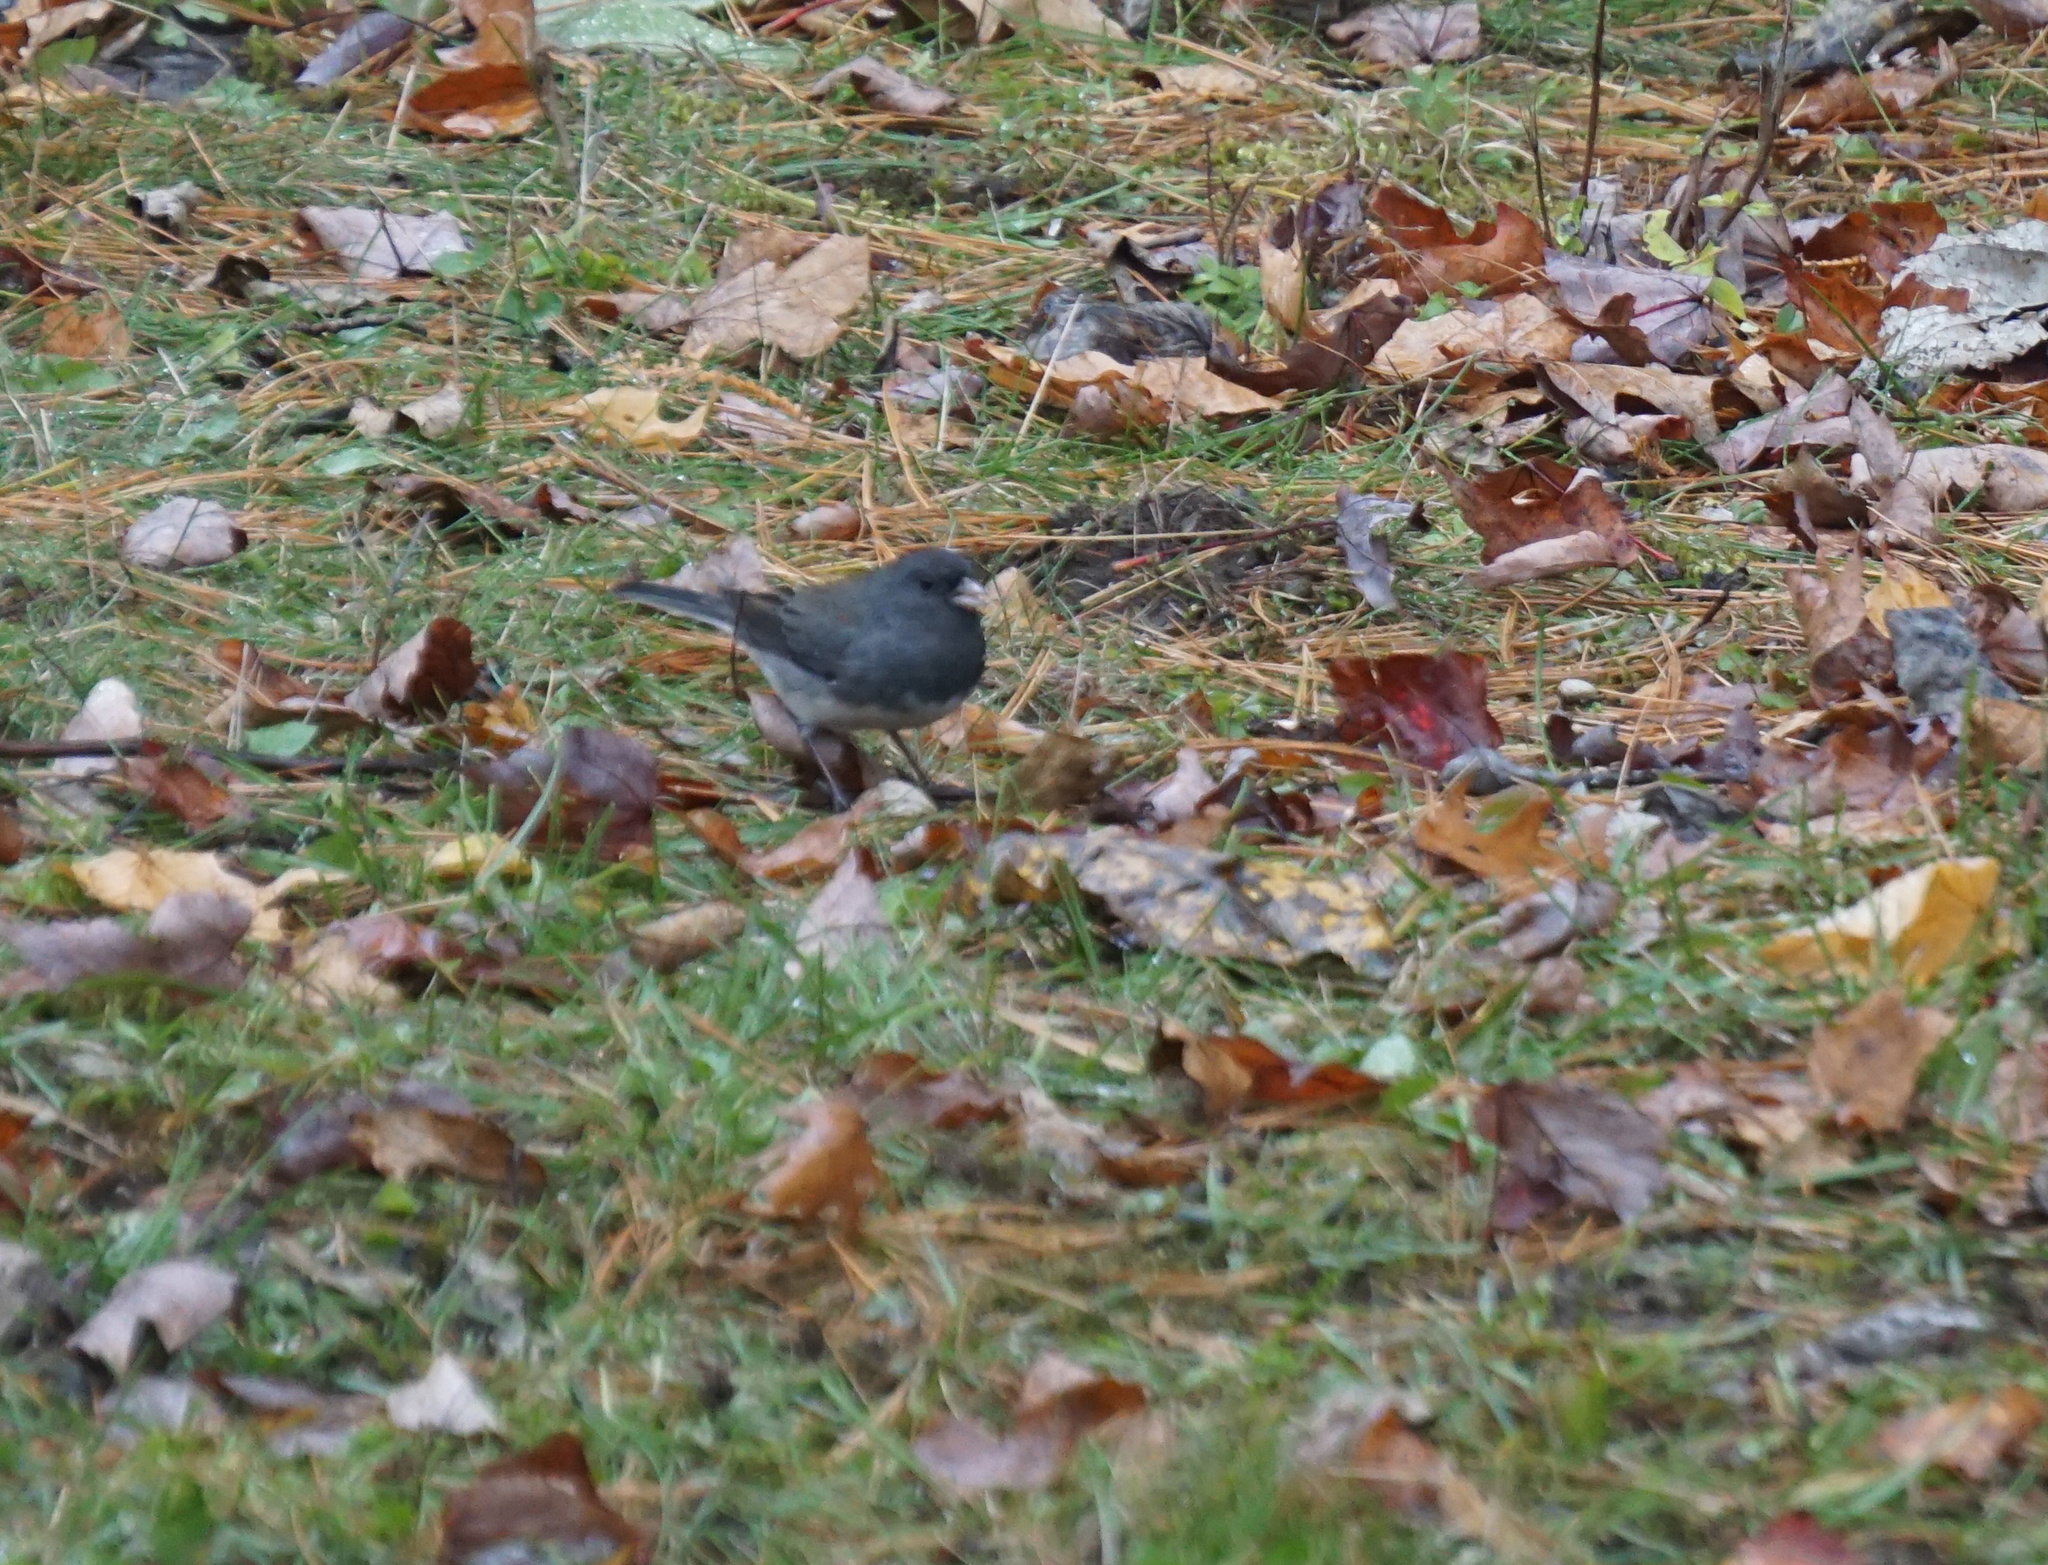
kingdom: Animalia
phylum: Chordata
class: Aves
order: Passeriformes
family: Passerellidae
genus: Junco
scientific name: Junco hyemalis
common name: Dark-eyed junco
